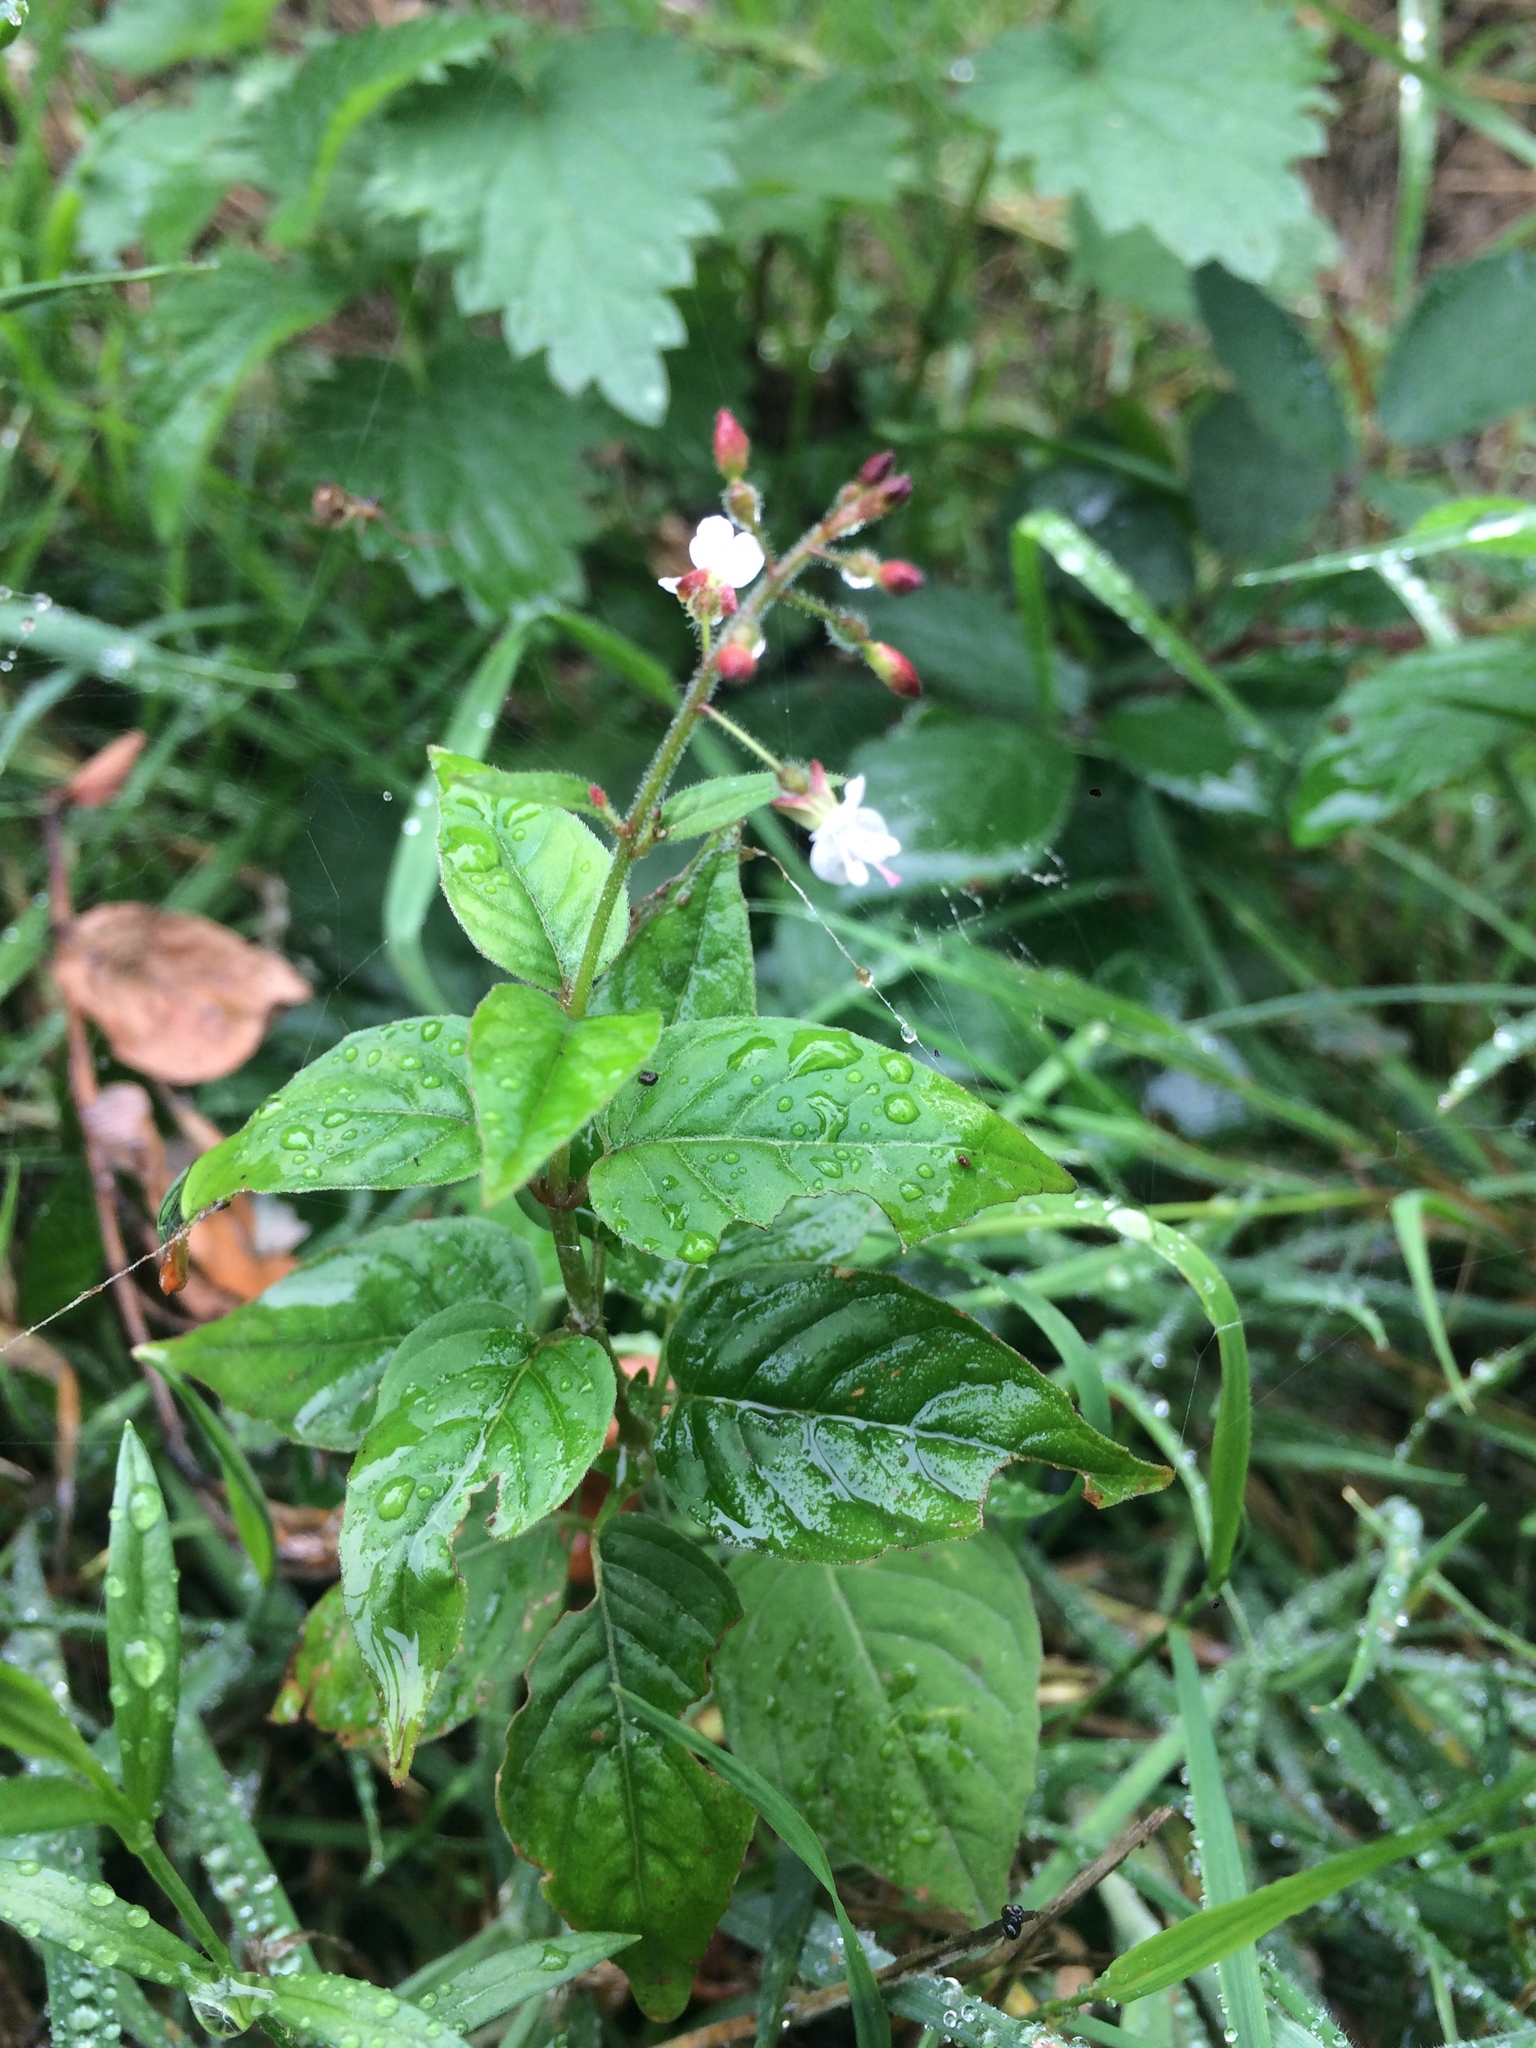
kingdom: Plantae
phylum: Tracheophyta
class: Magnoliopsida
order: Myrtales
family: Onagraceae
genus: Circaea
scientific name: Circaea lutetiana
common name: Enchanter's-nightshade
